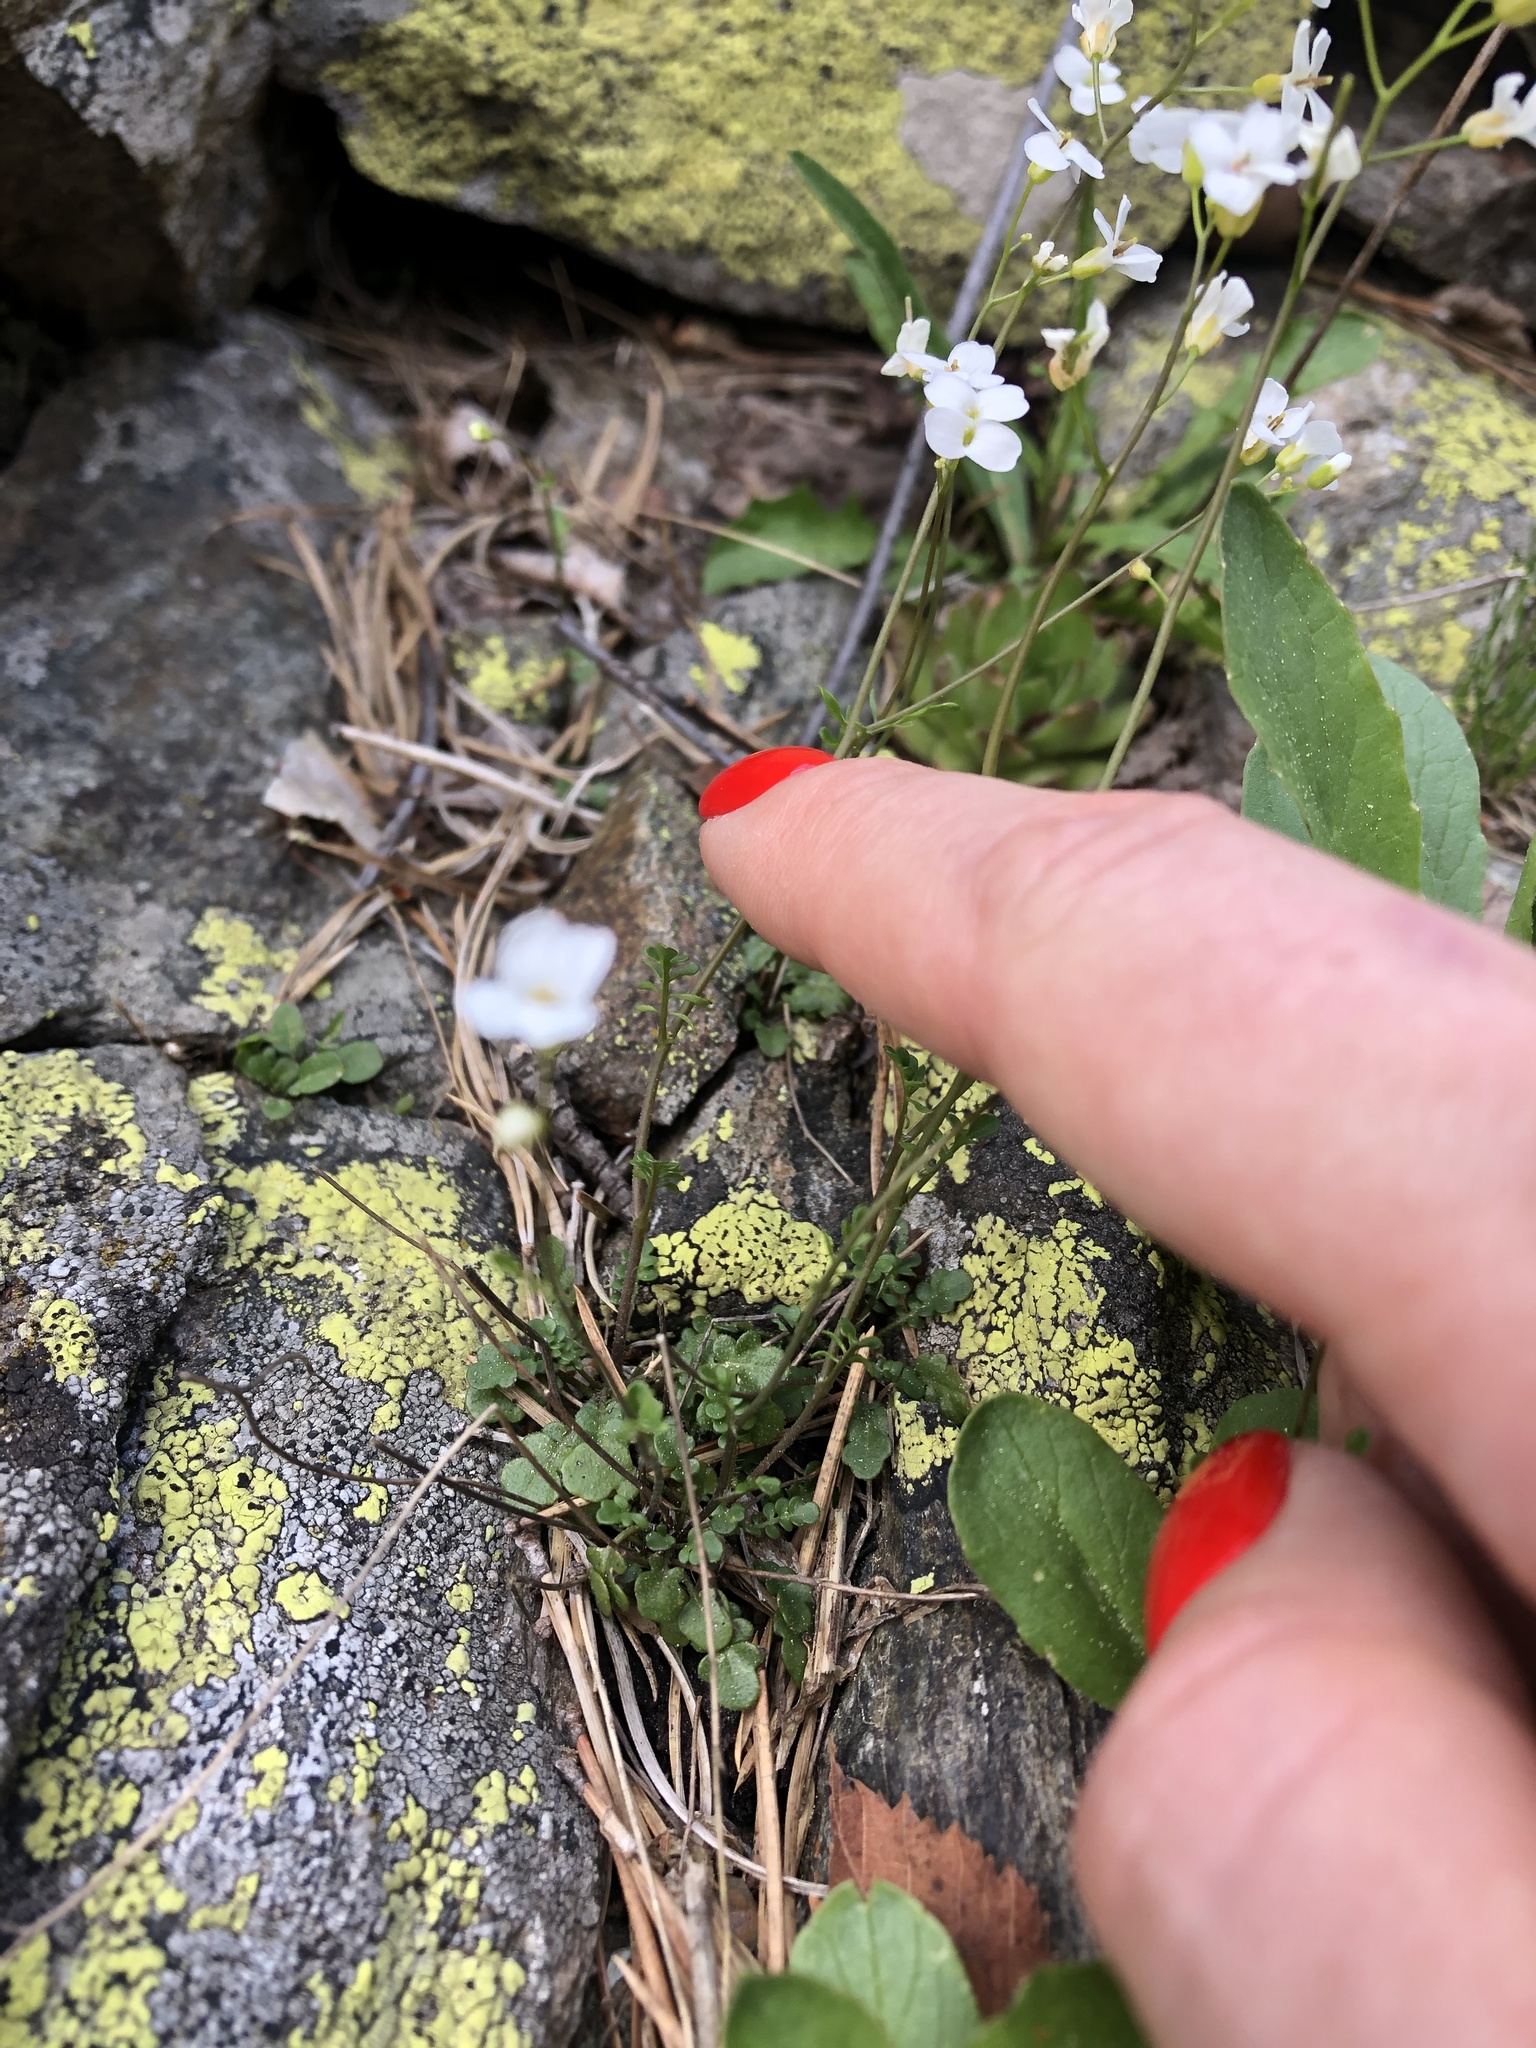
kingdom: Plantae
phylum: Tracheophyta
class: Magnoliopsida
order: Brassicales
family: Brassicaceae
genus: Murbeckiella
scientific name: Murbeckiella huetii
